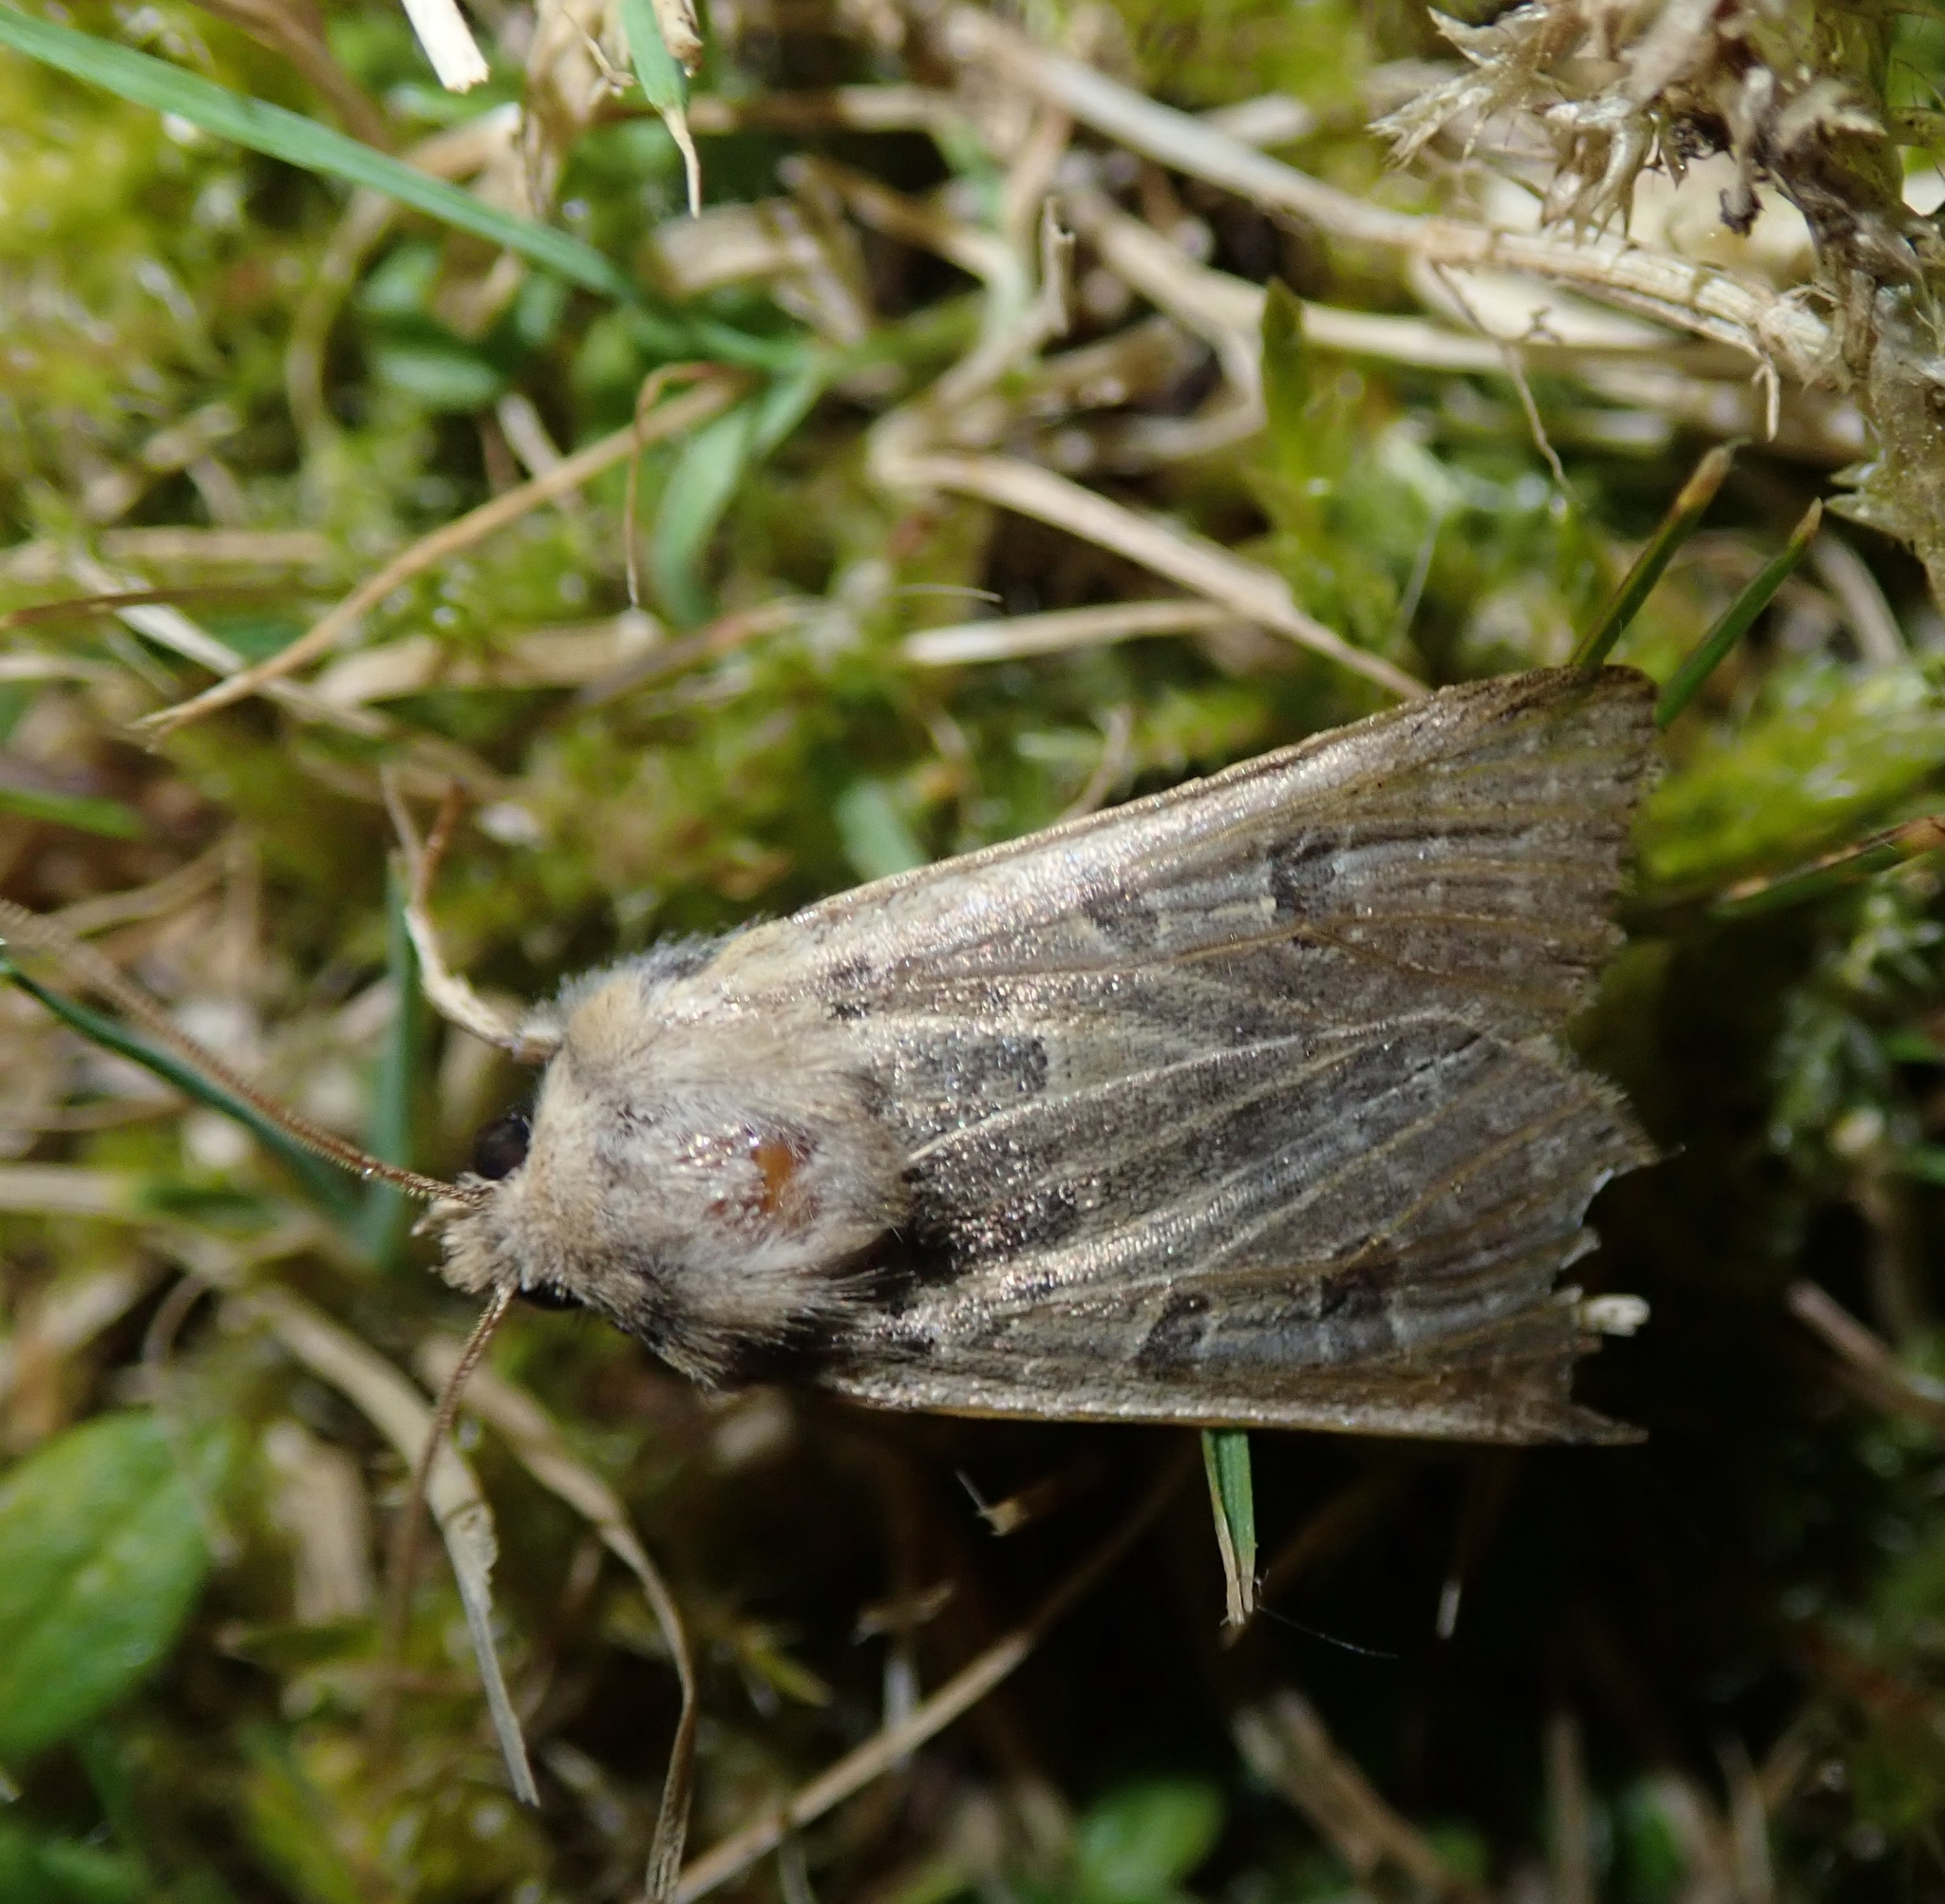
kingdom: Animalia
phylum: Arthropoda
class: Insecta
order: Lepidoptera
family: Noctuidae
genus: Agrochola
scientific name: Agrochola lunosa
